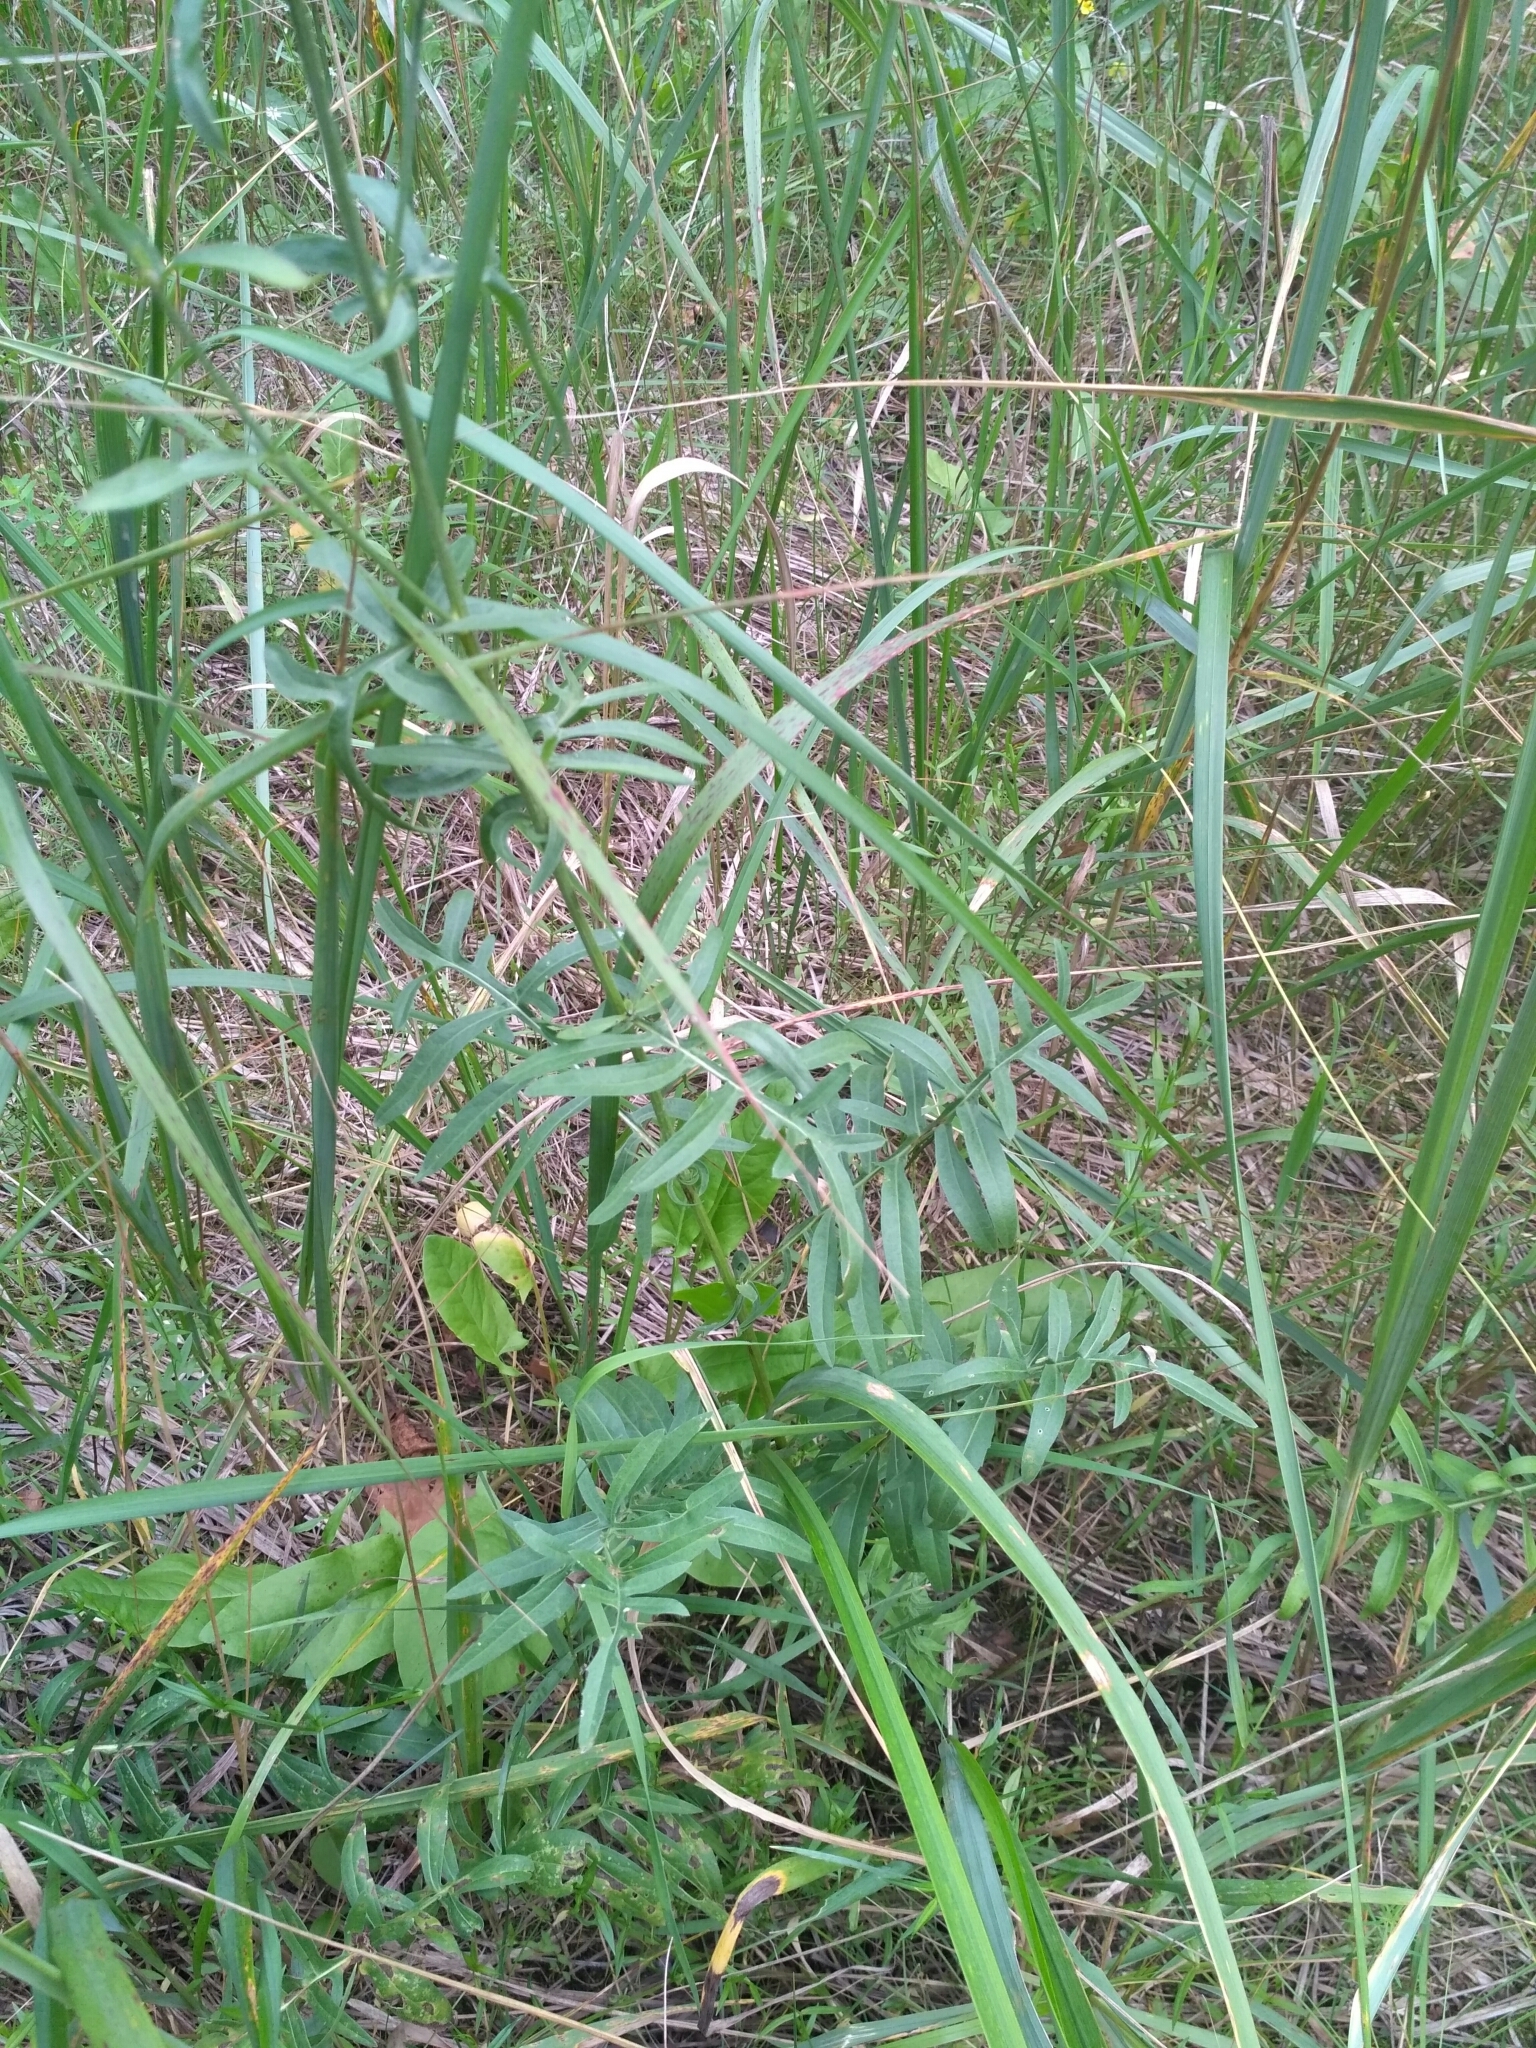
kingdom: Plantae
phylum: Tracheophyta
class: Magnoliopsida
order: Asterales
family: Asteraceae
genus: Centaurea
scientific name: Centaurea scabiosa
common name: Greater knapweed
